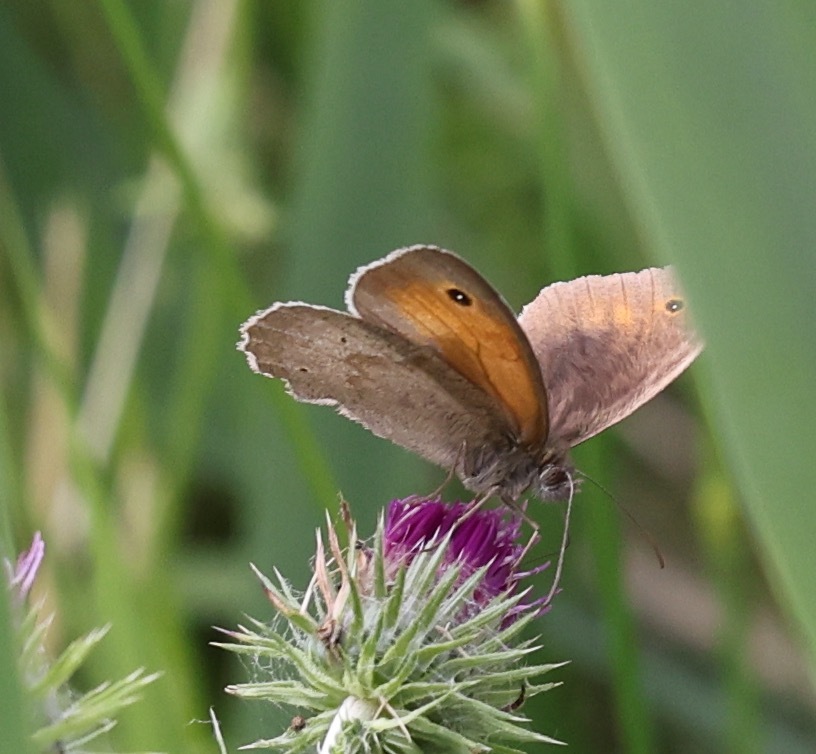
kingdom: Animalia
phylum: Arthropoda
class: Insecta
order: Lepidoptera
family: Nymphalidae
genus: Maniola
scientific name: Maniola jurtina
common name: Meadow brown
